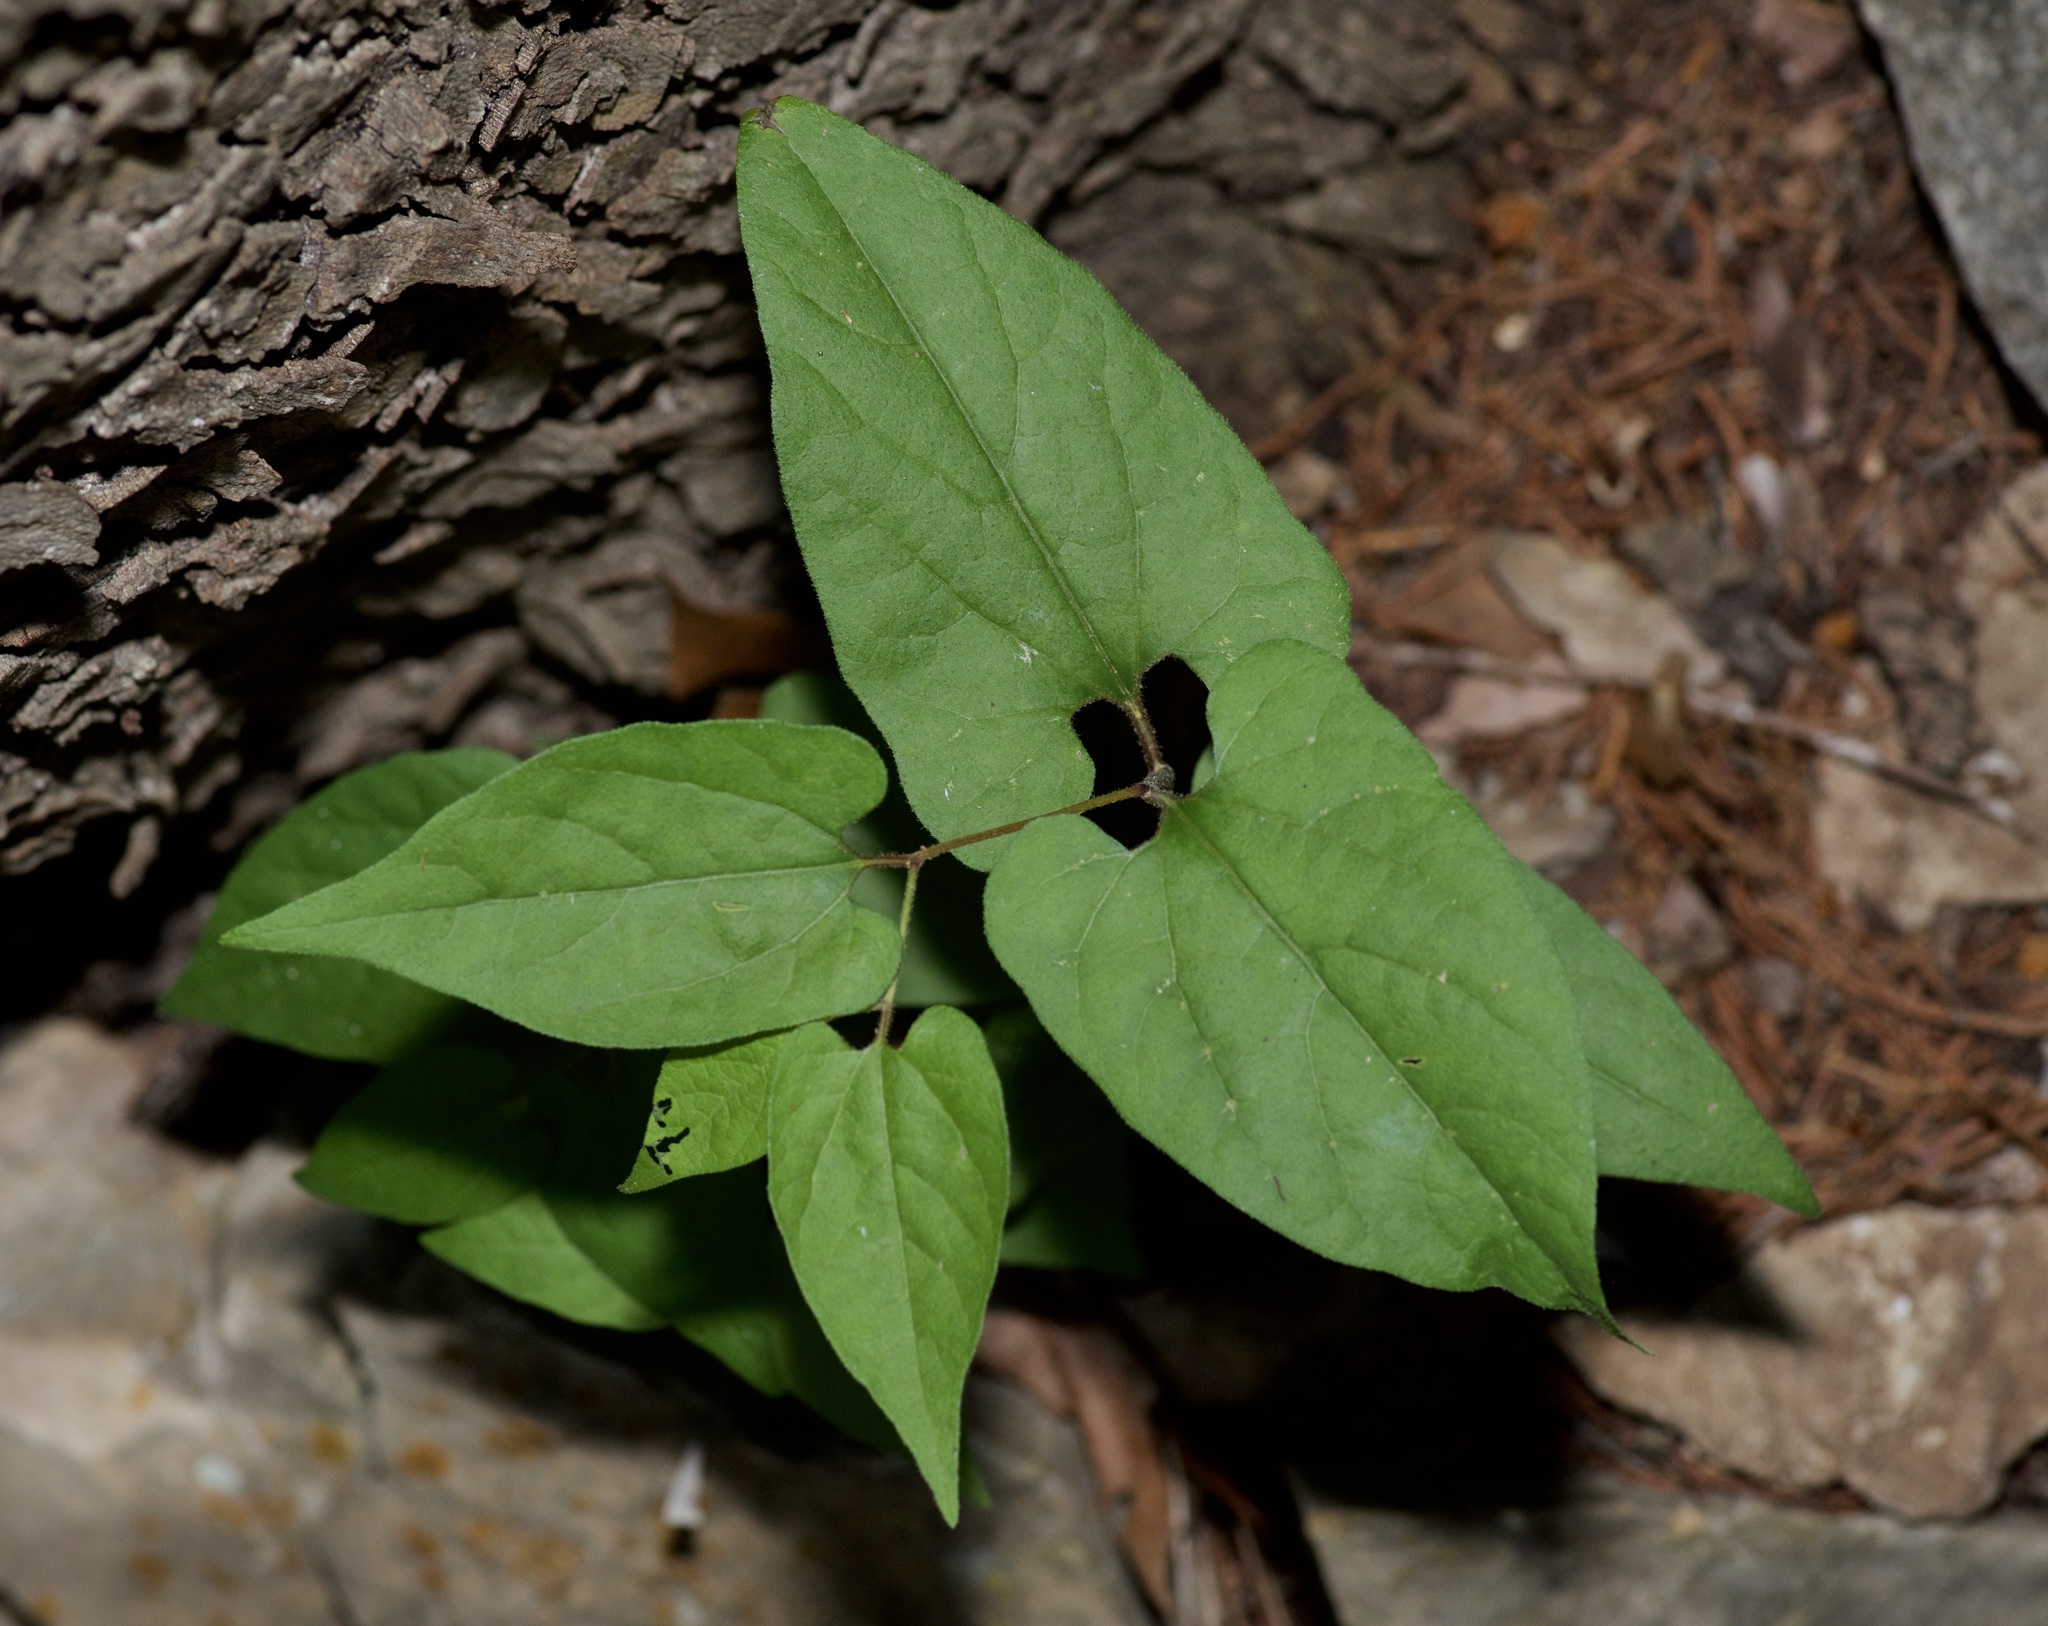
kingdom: Plantae
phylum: Tracheophyta
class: Magnoliopsida
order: Piperales
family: Aristolochiaceae
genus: Endodeca
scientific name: Endodeca serpentaria
